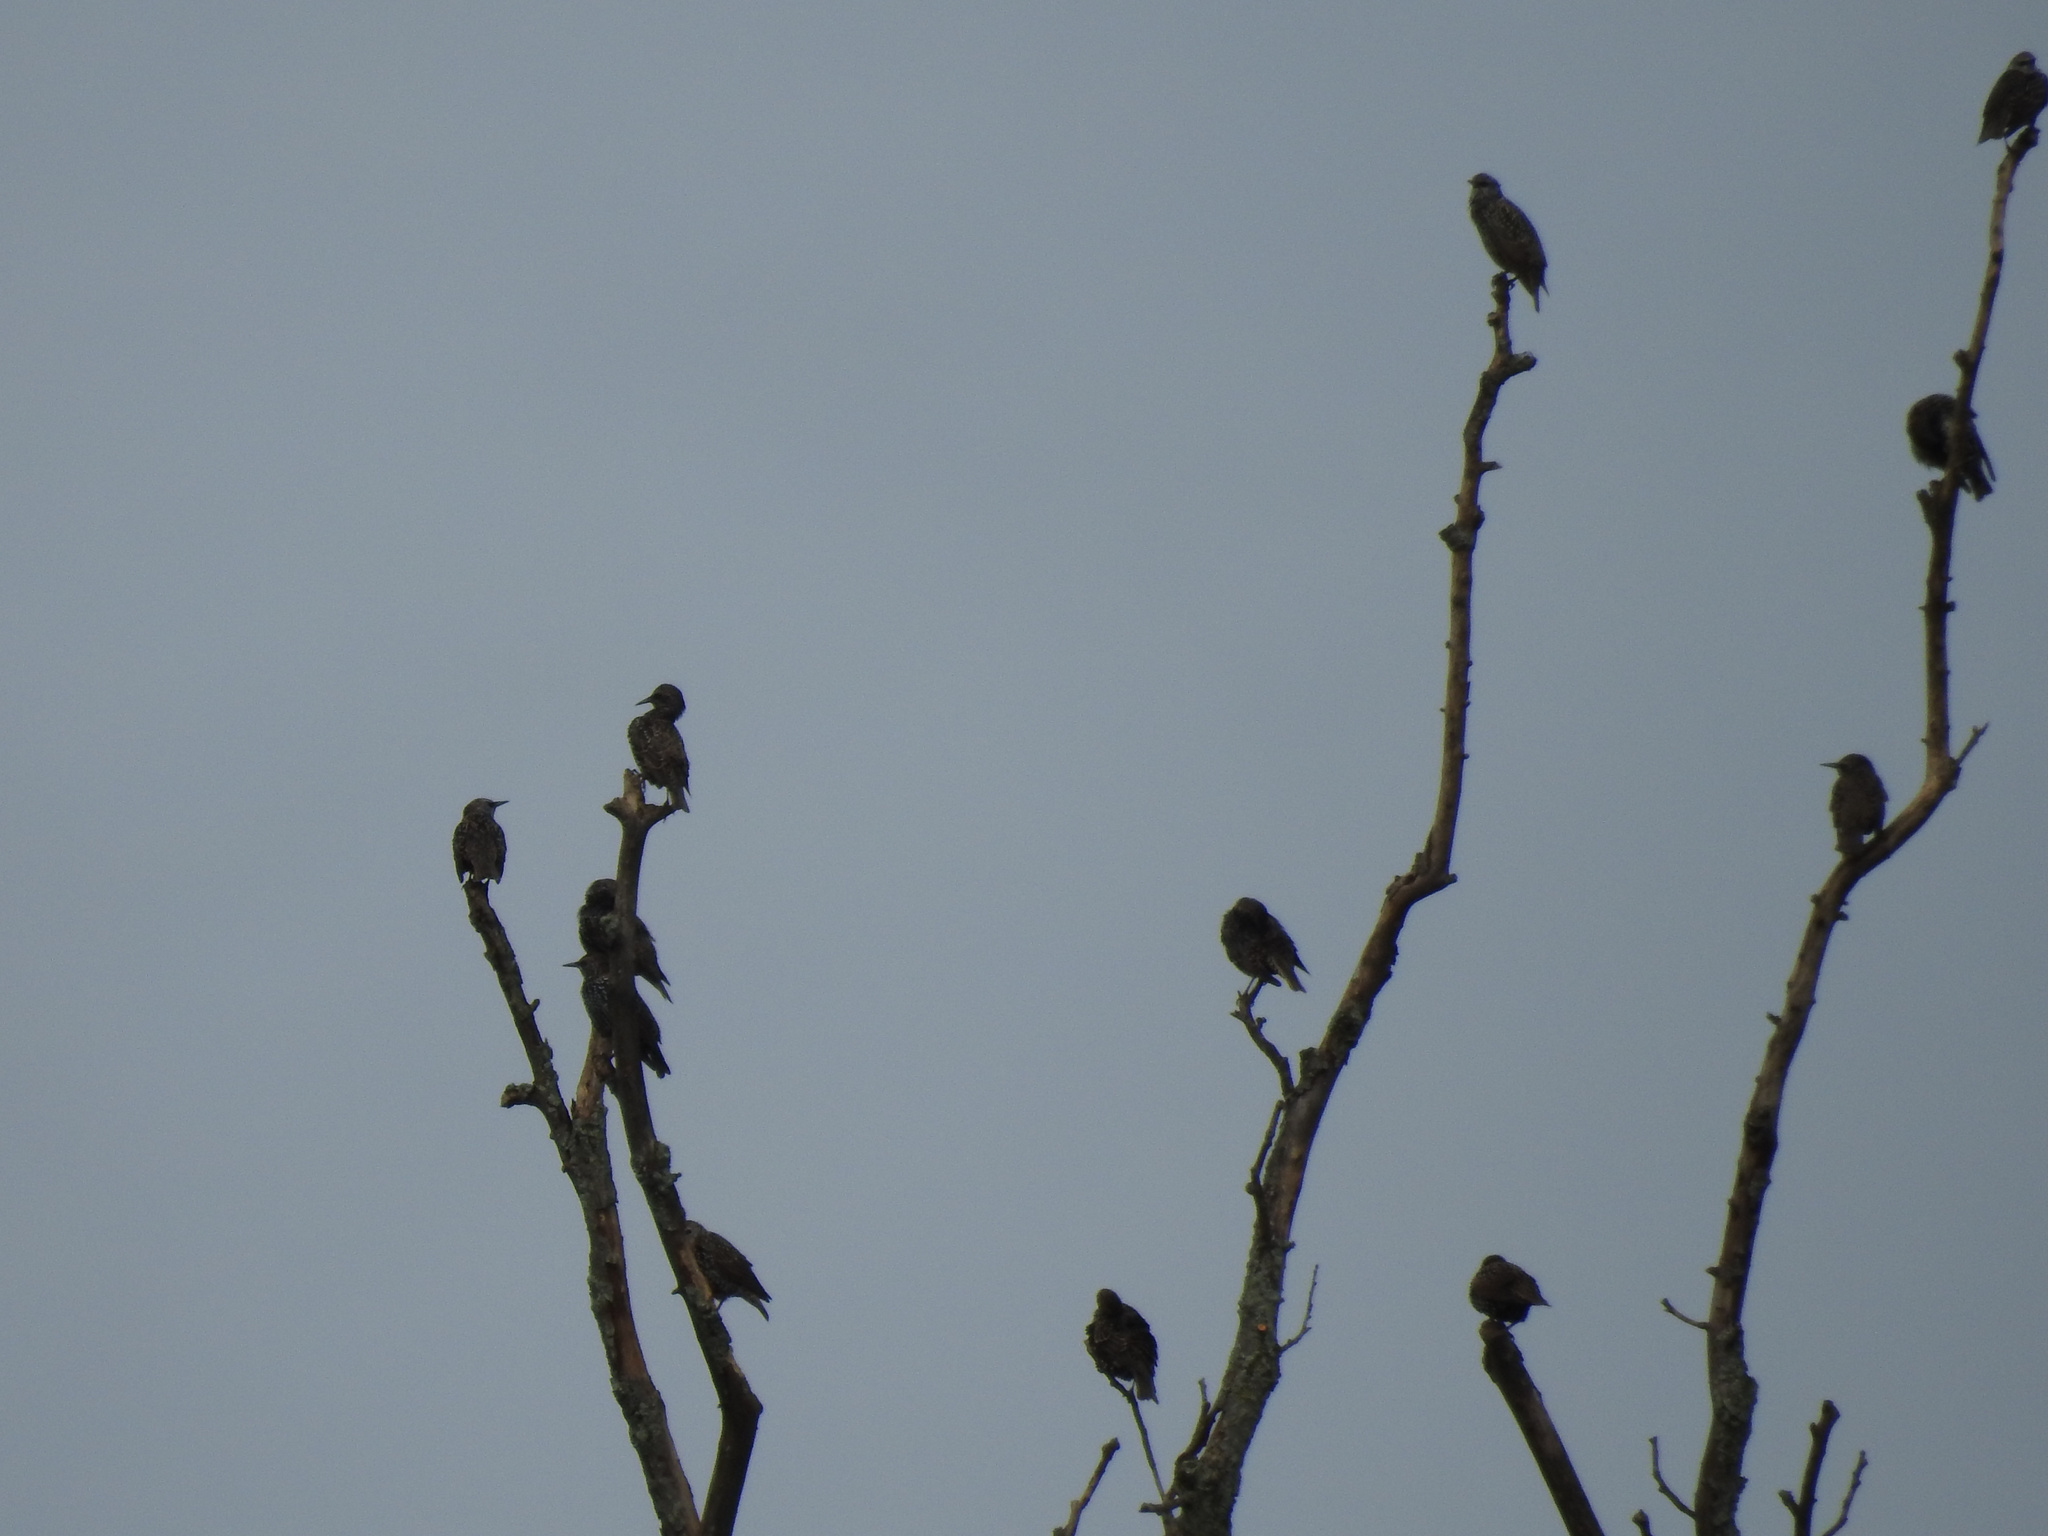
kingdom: Animalia
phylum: Chordata
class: Aves
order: Passeriformes
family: Sturnidae
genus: Sturnus
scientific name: Sturnus vulgaris
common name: Common starling
